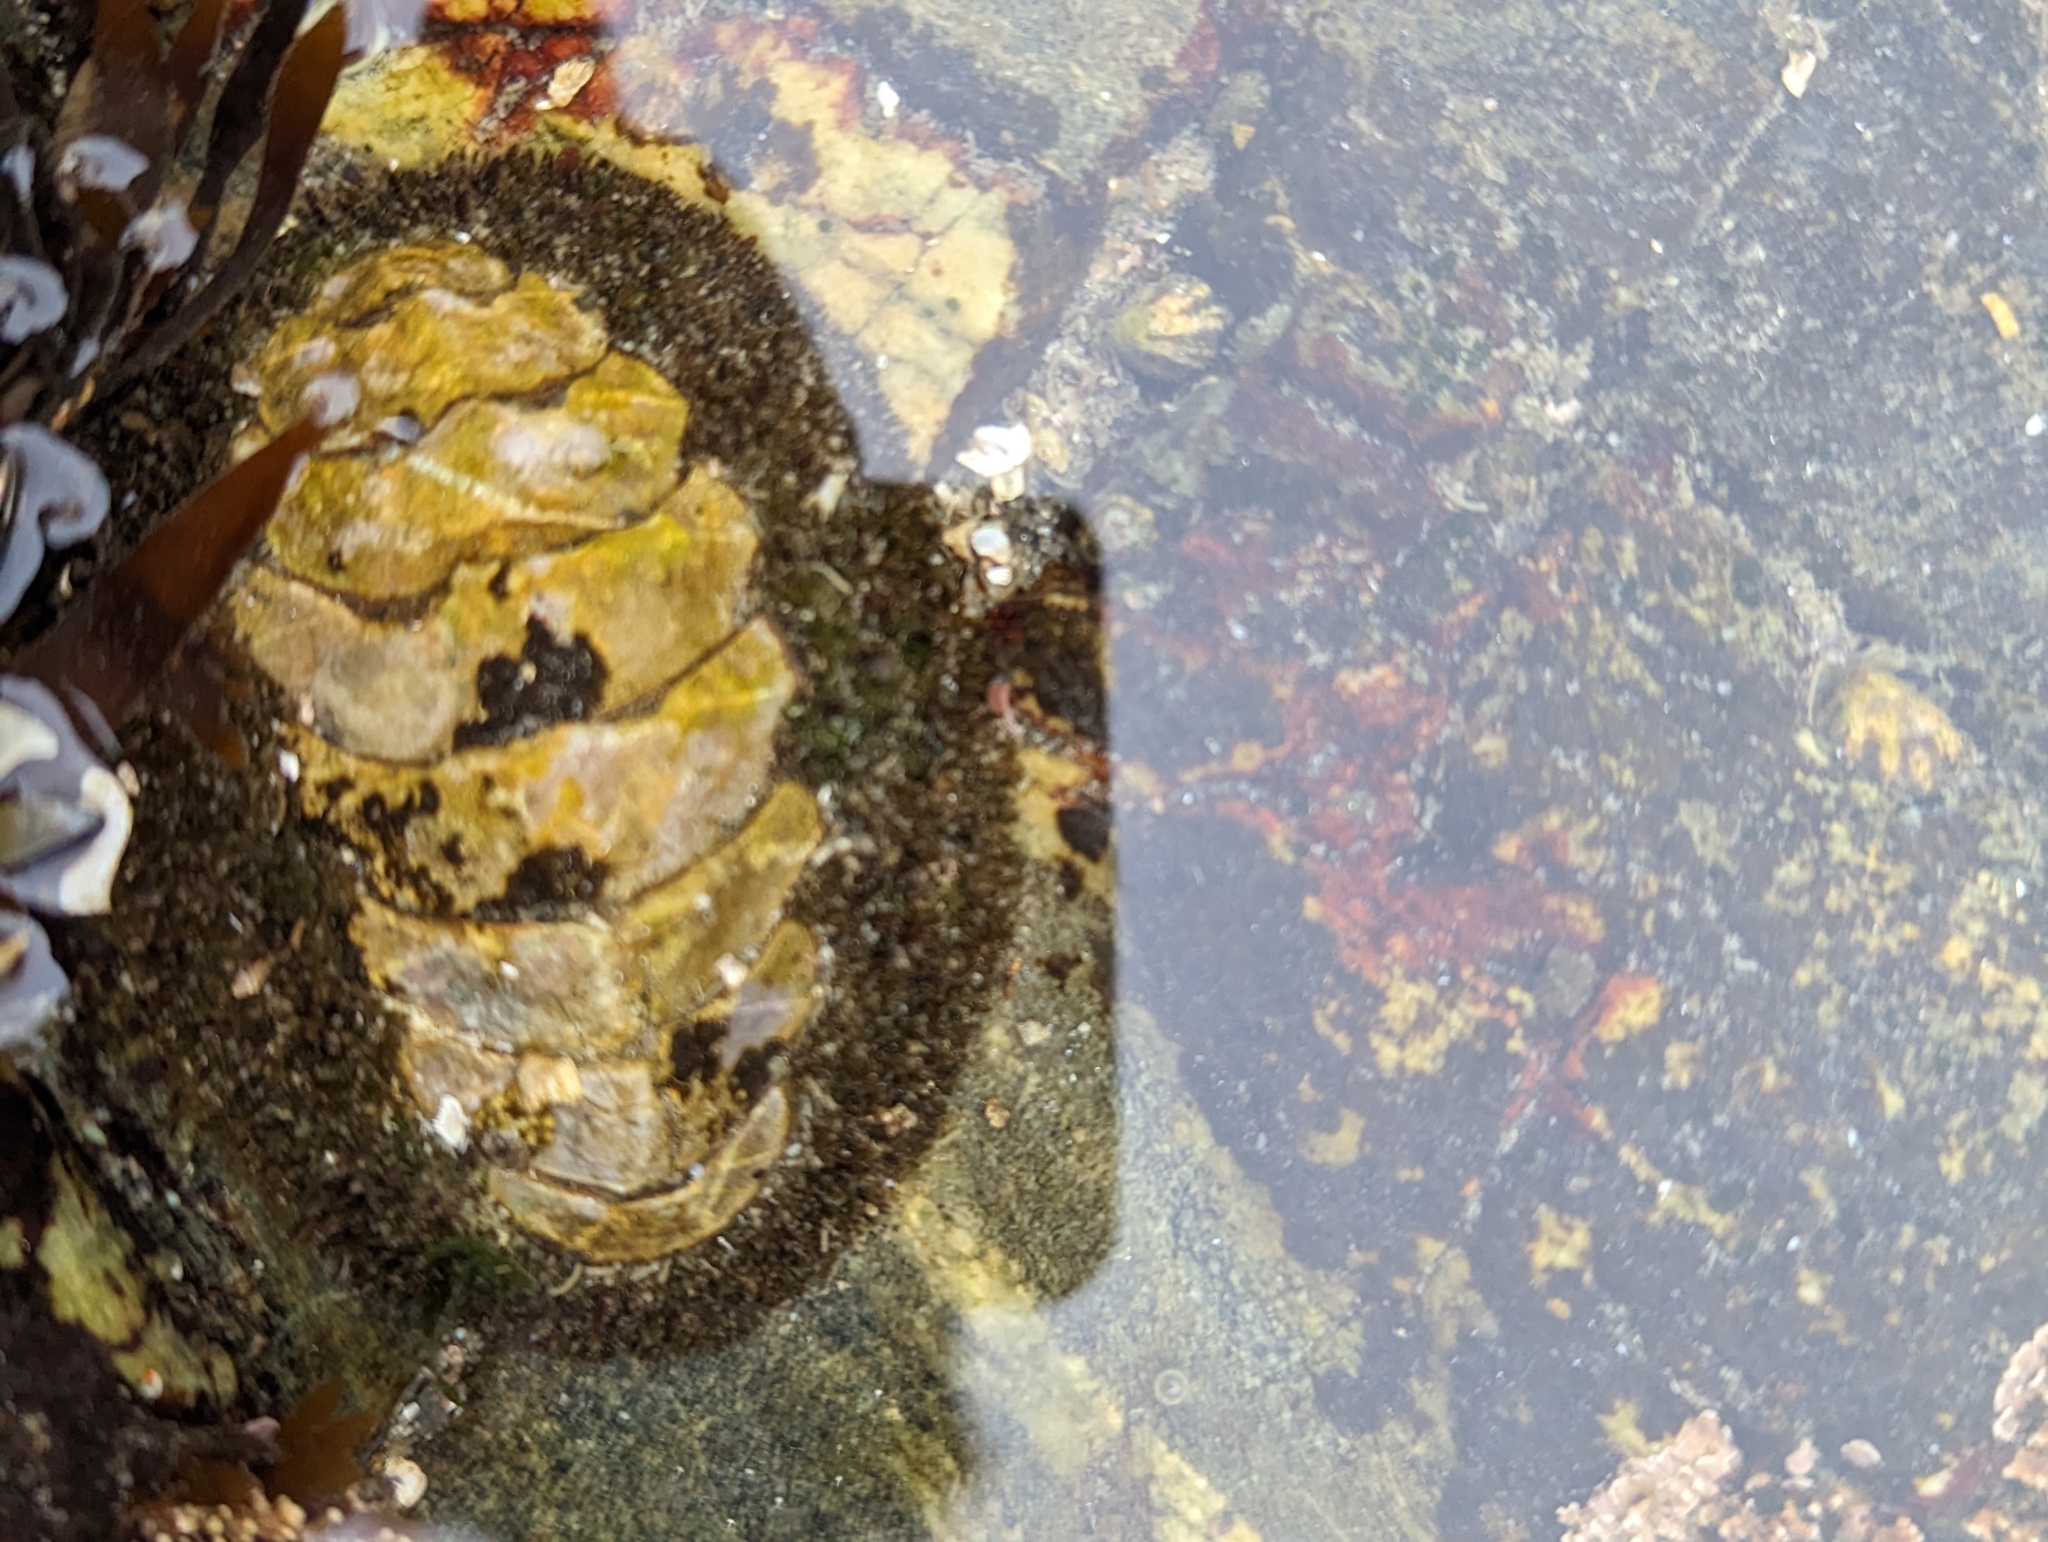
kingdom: Animalia
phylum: Mollusca
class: Polyplacophora
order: Chitonida
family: Mopaliidae
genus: Mopalia
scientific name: Mopalia muscosa
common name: Mossy chiton
